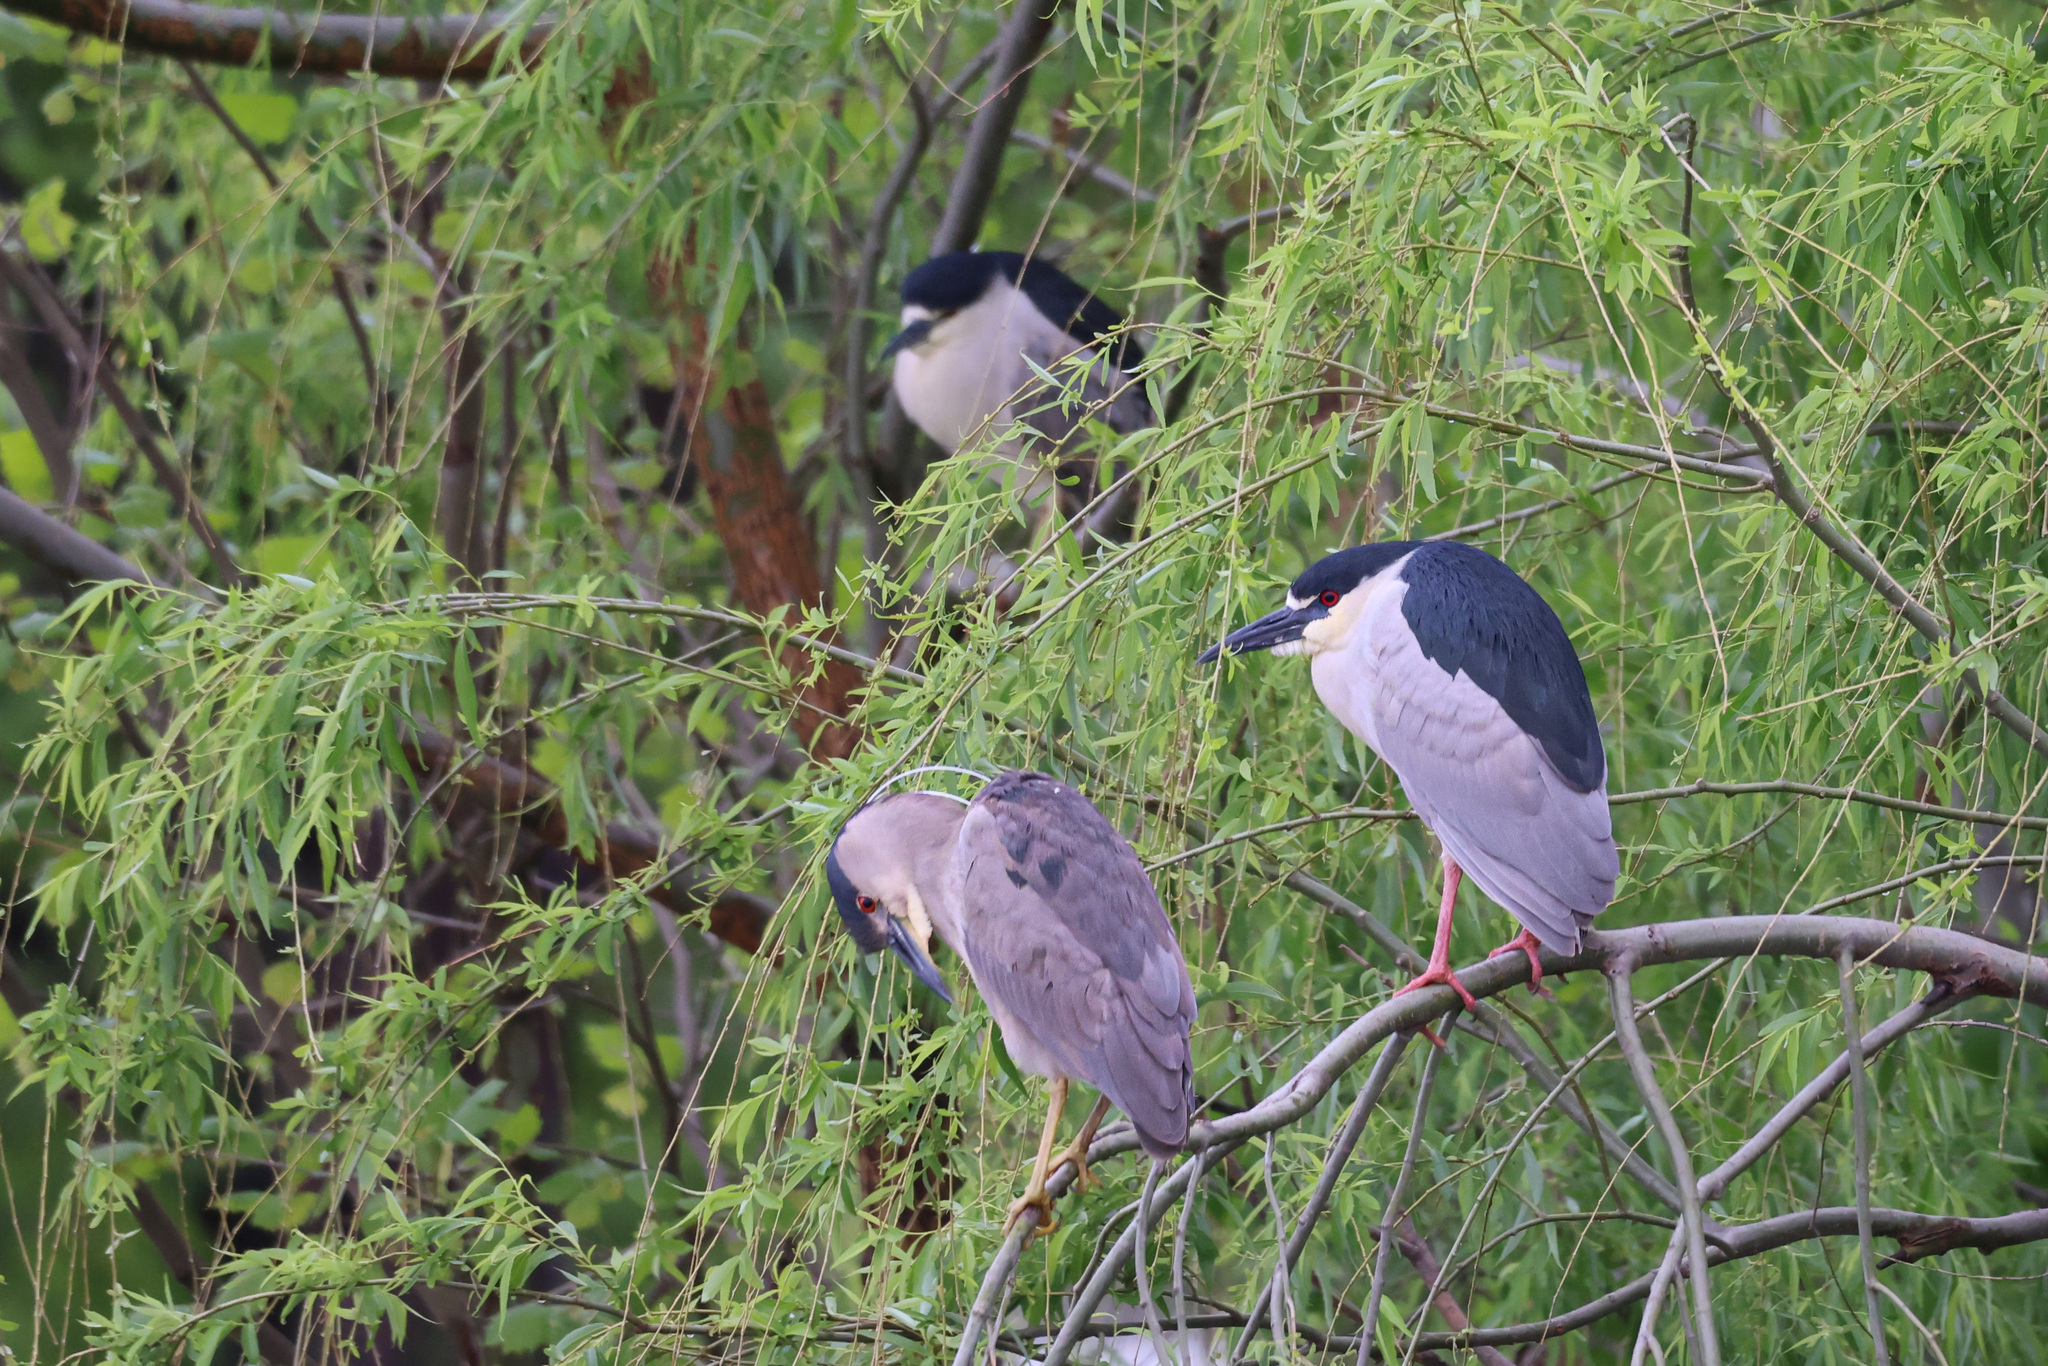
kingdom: Animalia
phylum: Chordata
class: Aves
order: Pelecaniformes
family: Ardeidae
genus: Nycticorax
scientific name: Nycticorax nycticorax
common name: Black-crowned night heron
